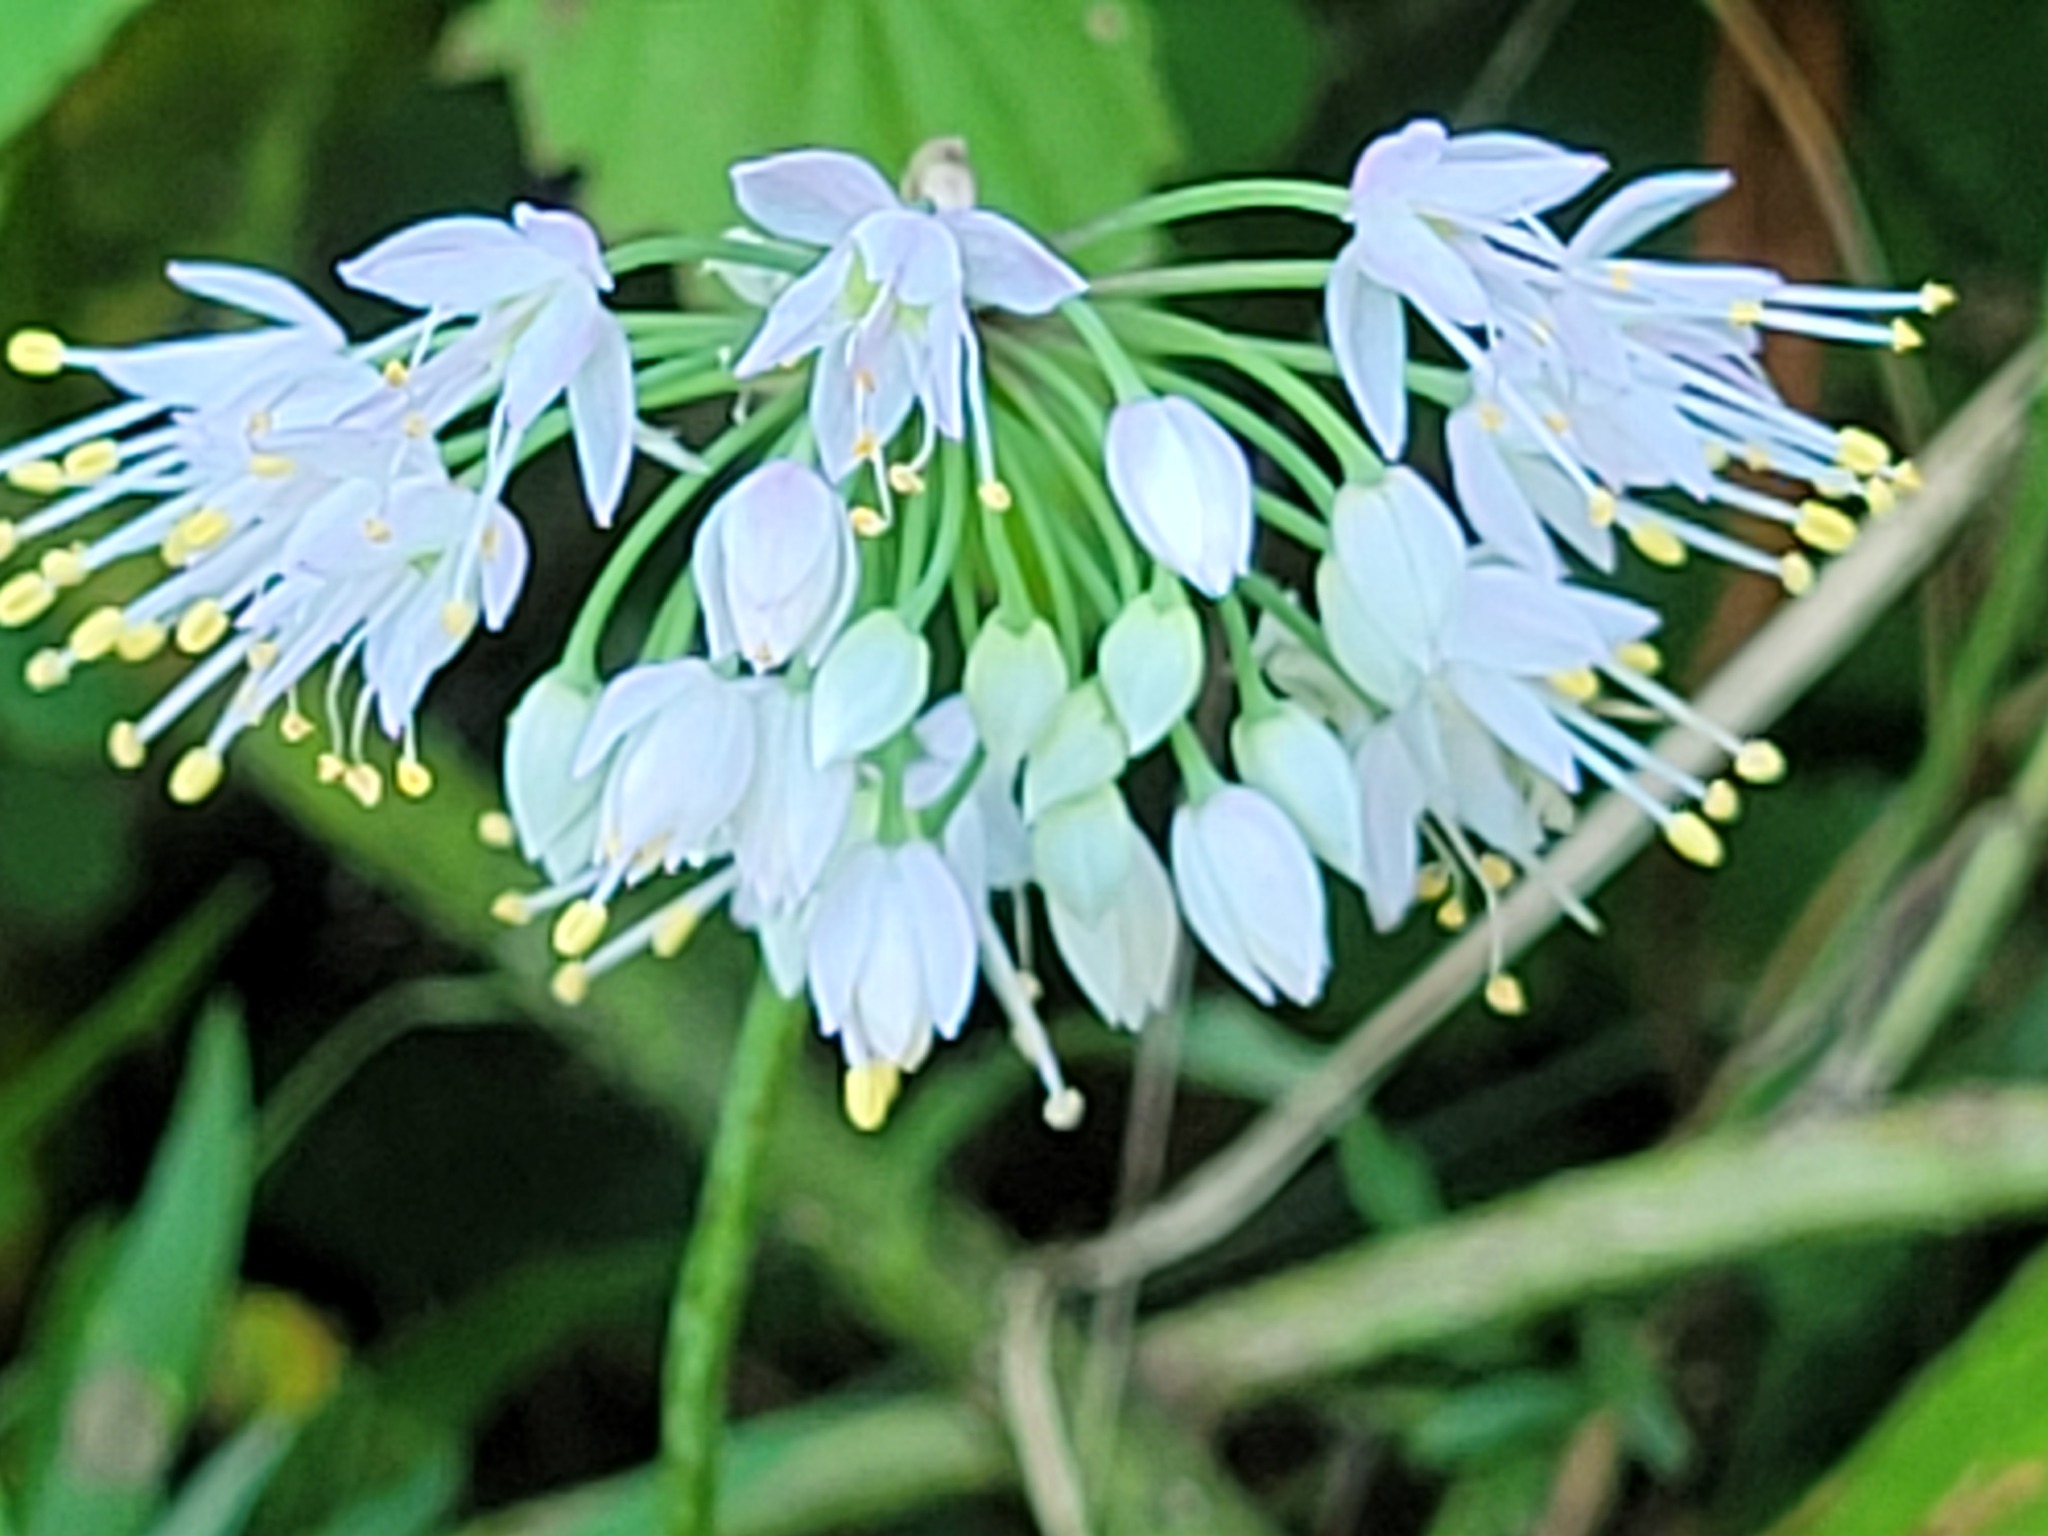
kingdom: Plantae
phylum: Tracheophyta
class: Liliopsida
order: Asparagales
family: Amaryllidaceae
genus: Allium
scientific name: Allium cernuum
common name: Nodding onion
